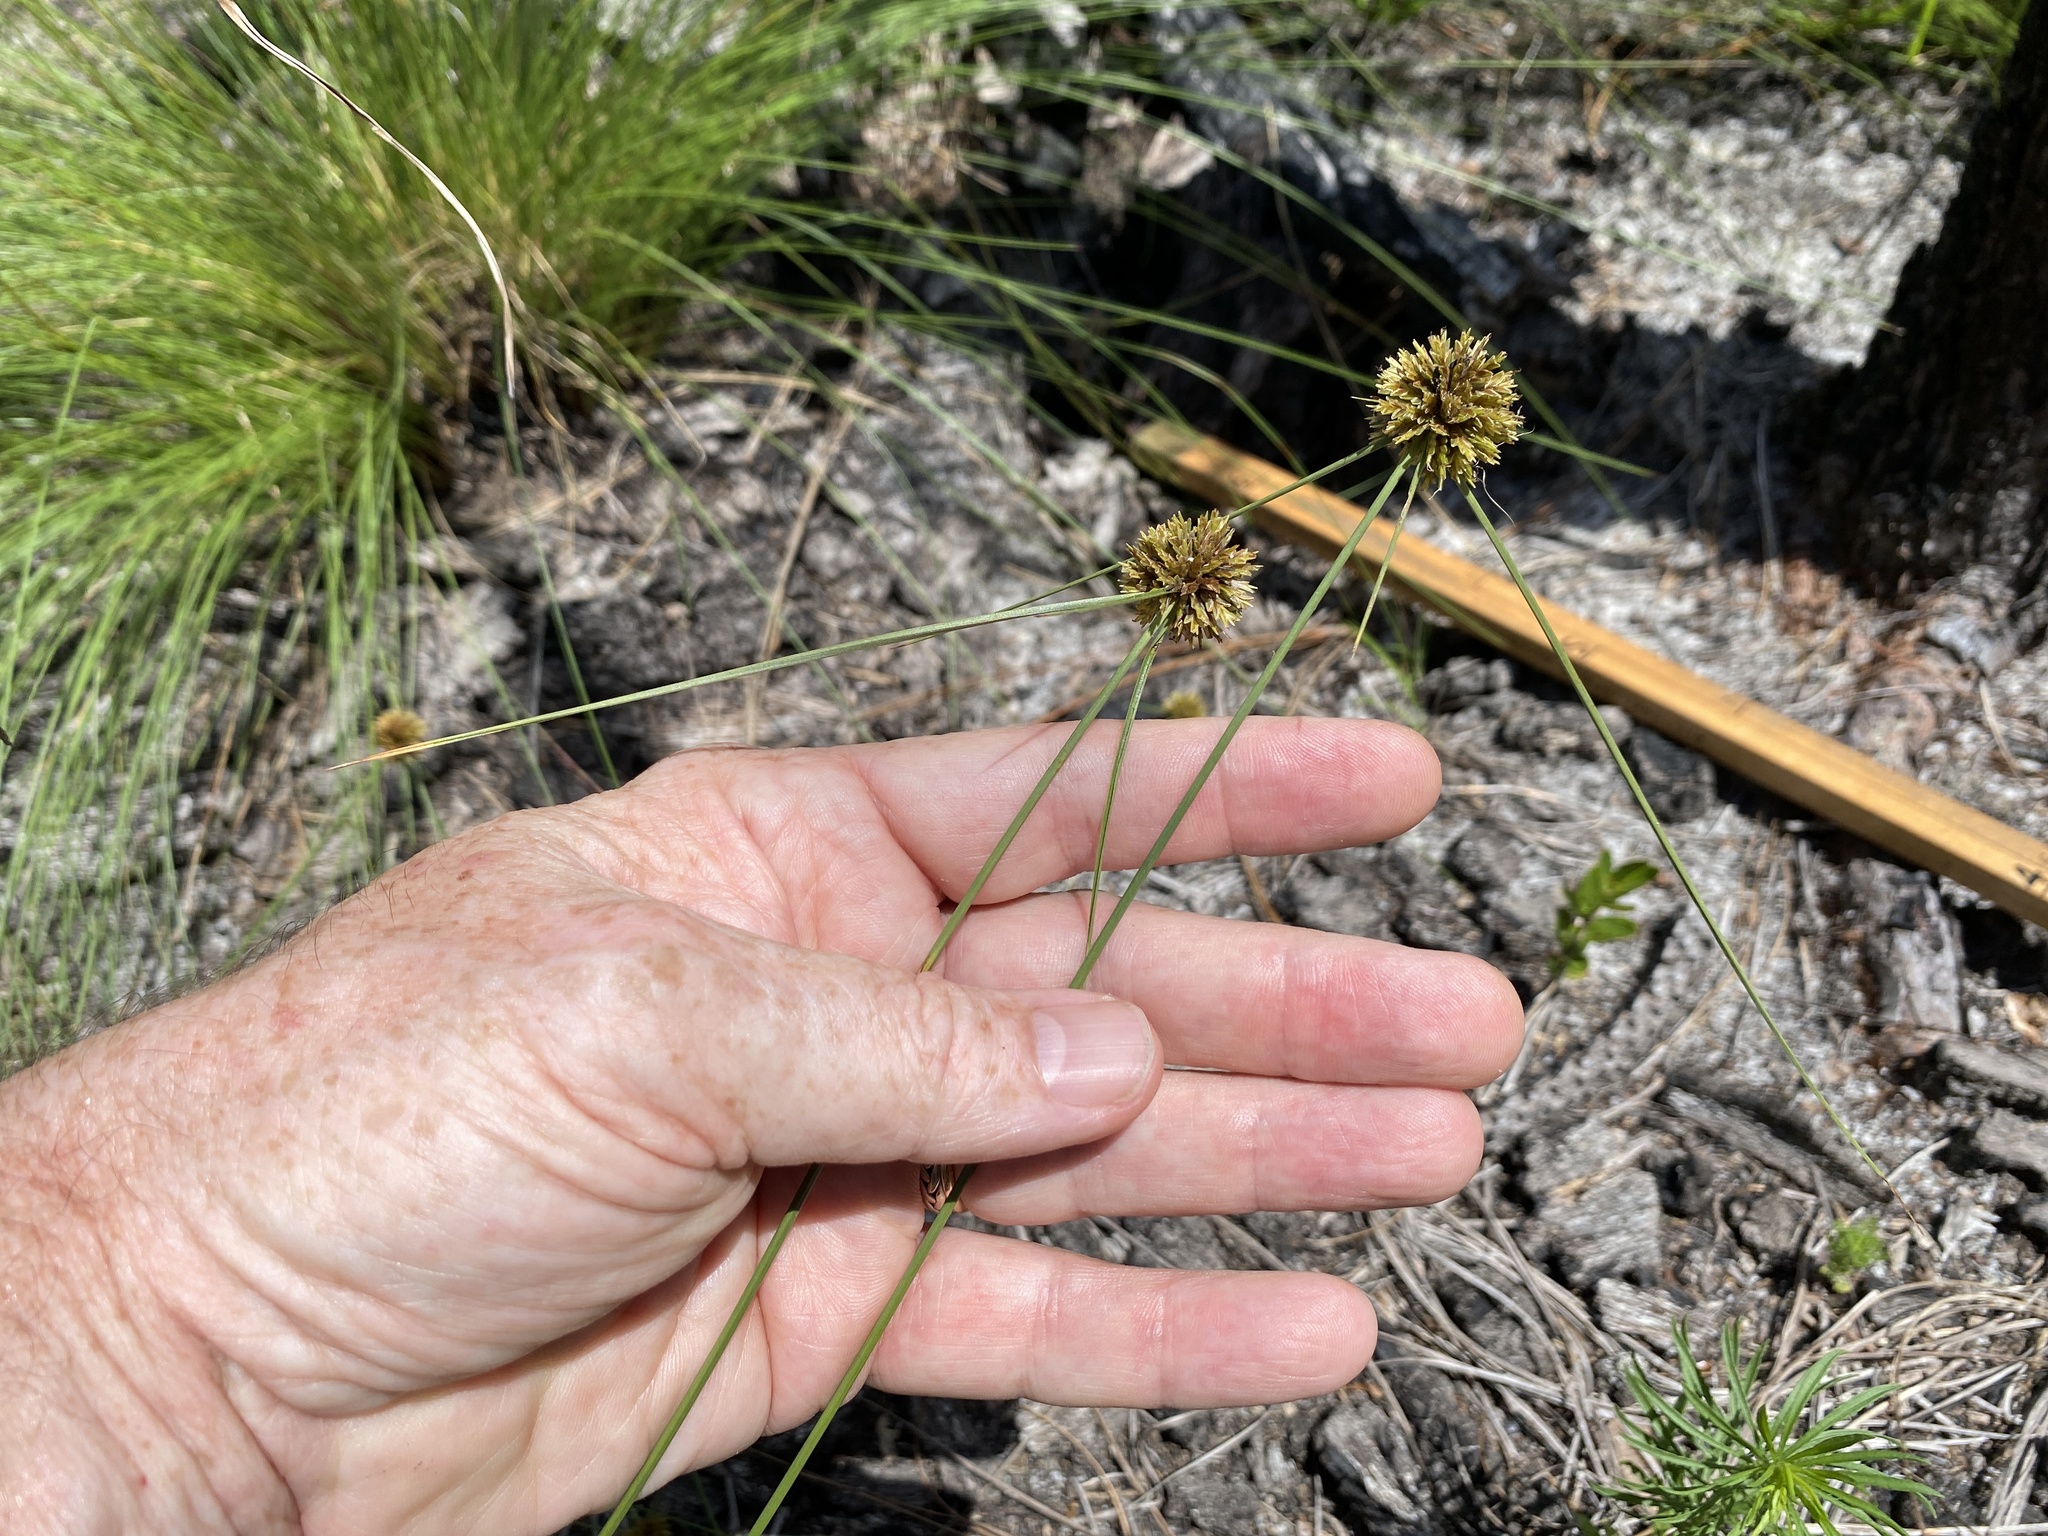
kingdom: Plantae
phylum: Tracheophyta
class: Liliopsida
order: Poales
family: Cyperaceae
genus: Cyperus
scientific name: Cyperus filiculmis
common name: Slender sand sedge
